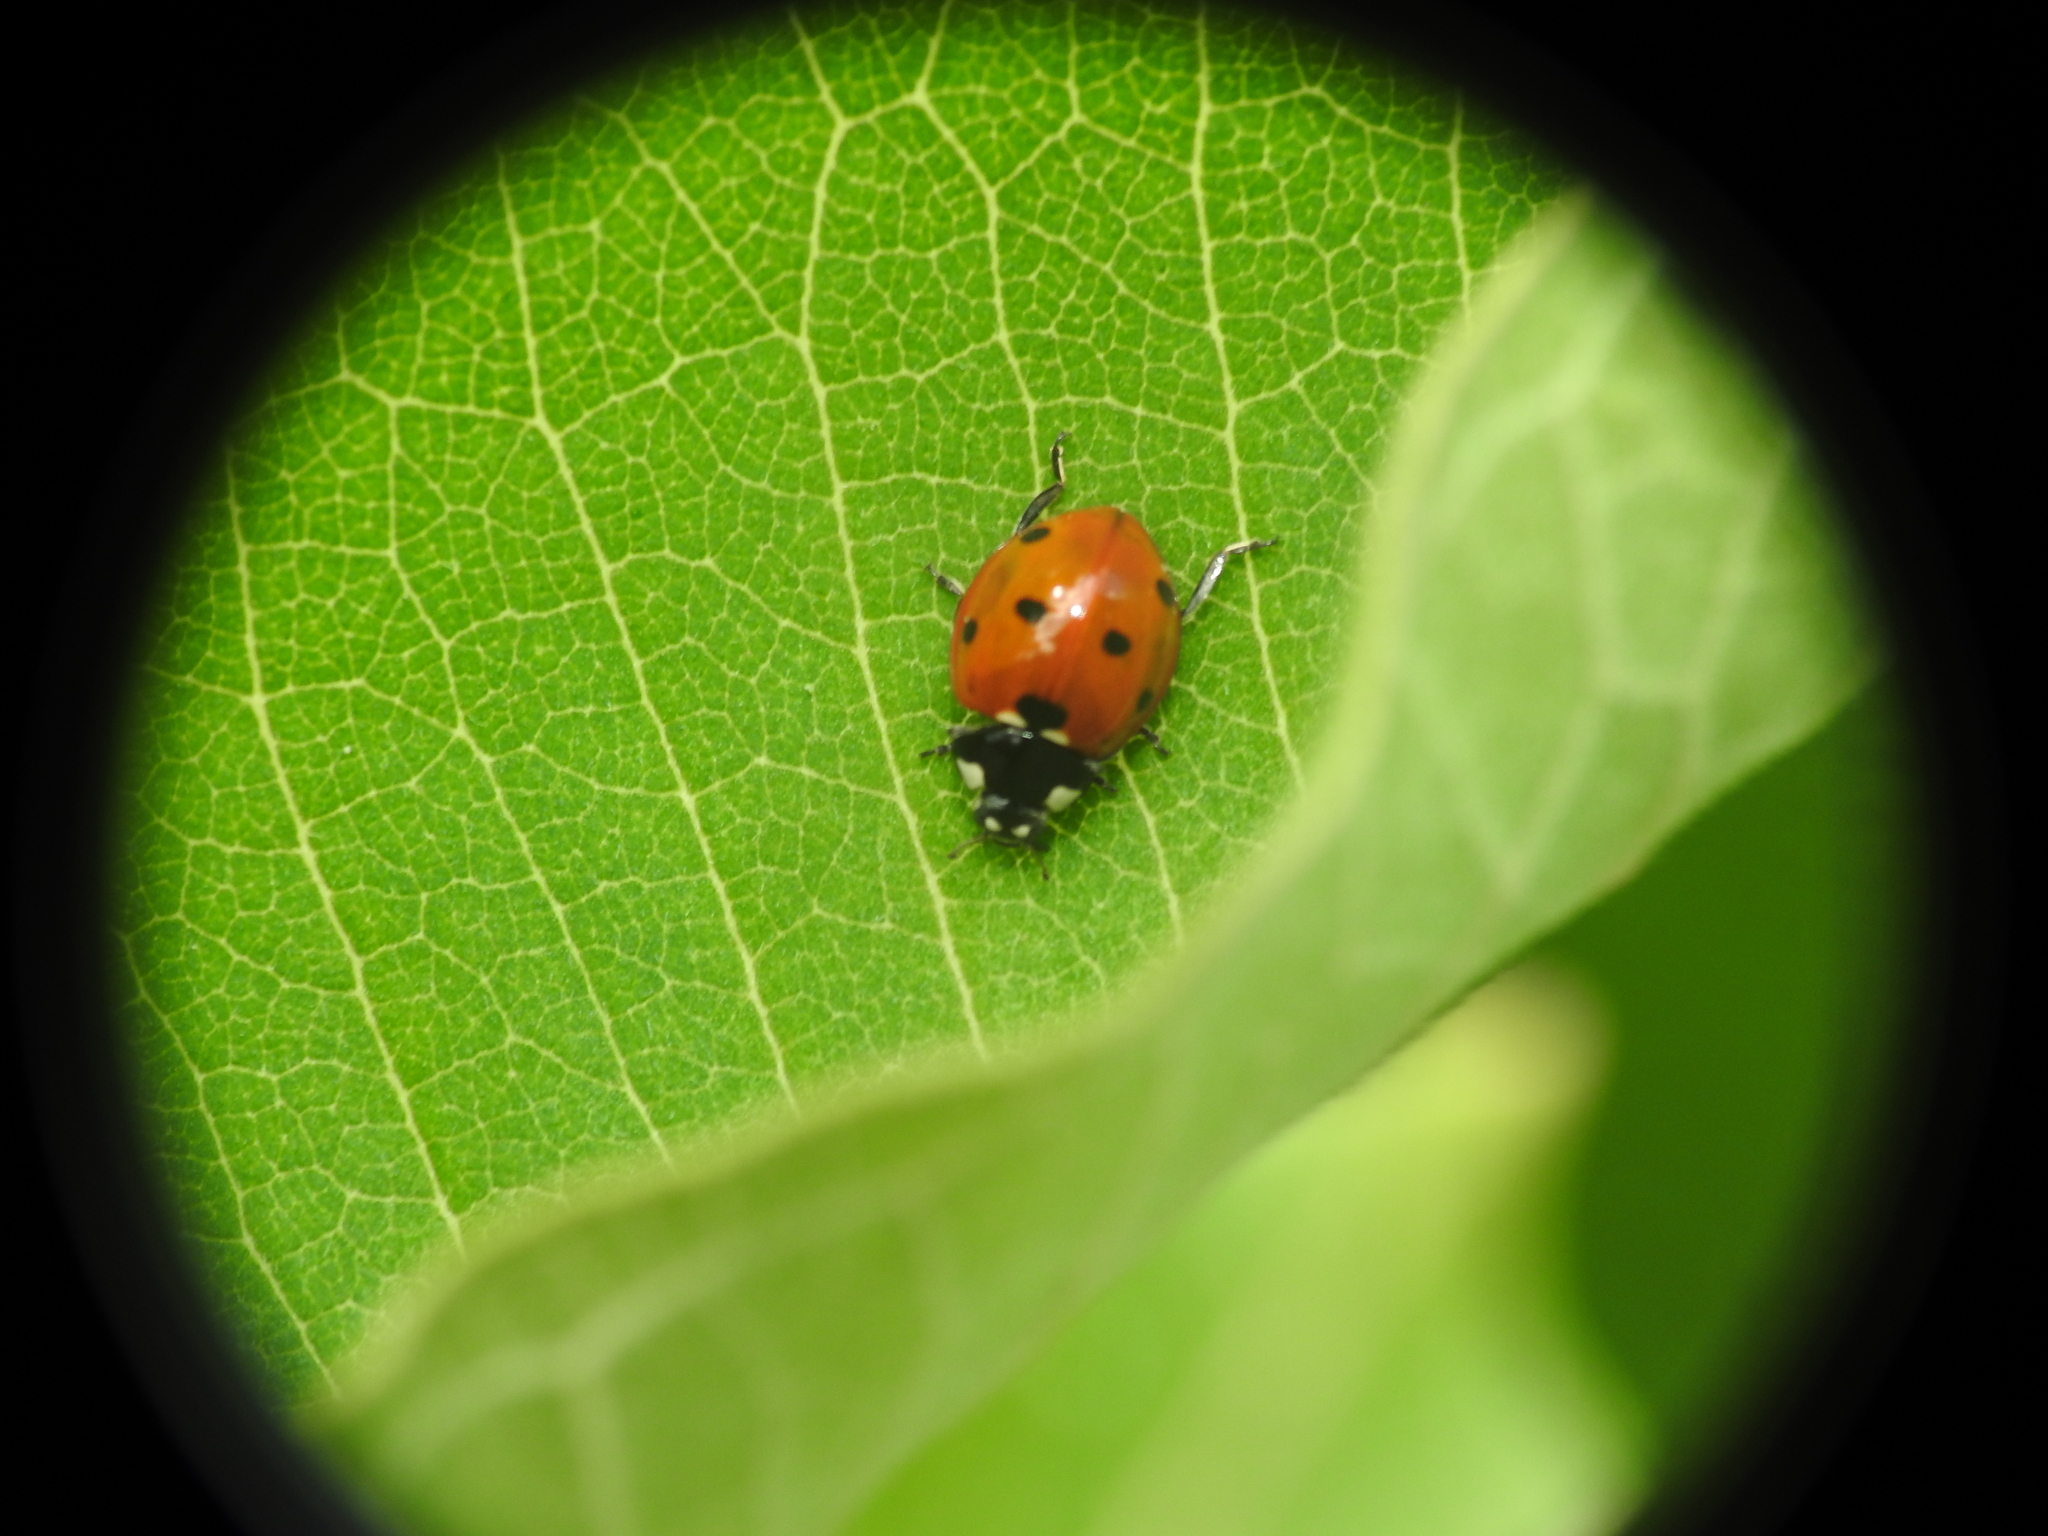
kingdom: Animalia
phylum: Arthropoda
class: Insecta
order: Coleoptera
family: Coccinellidae
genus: Coccinella
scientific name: Coccinella septempunctata
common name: Sevenspotted lady beetle
